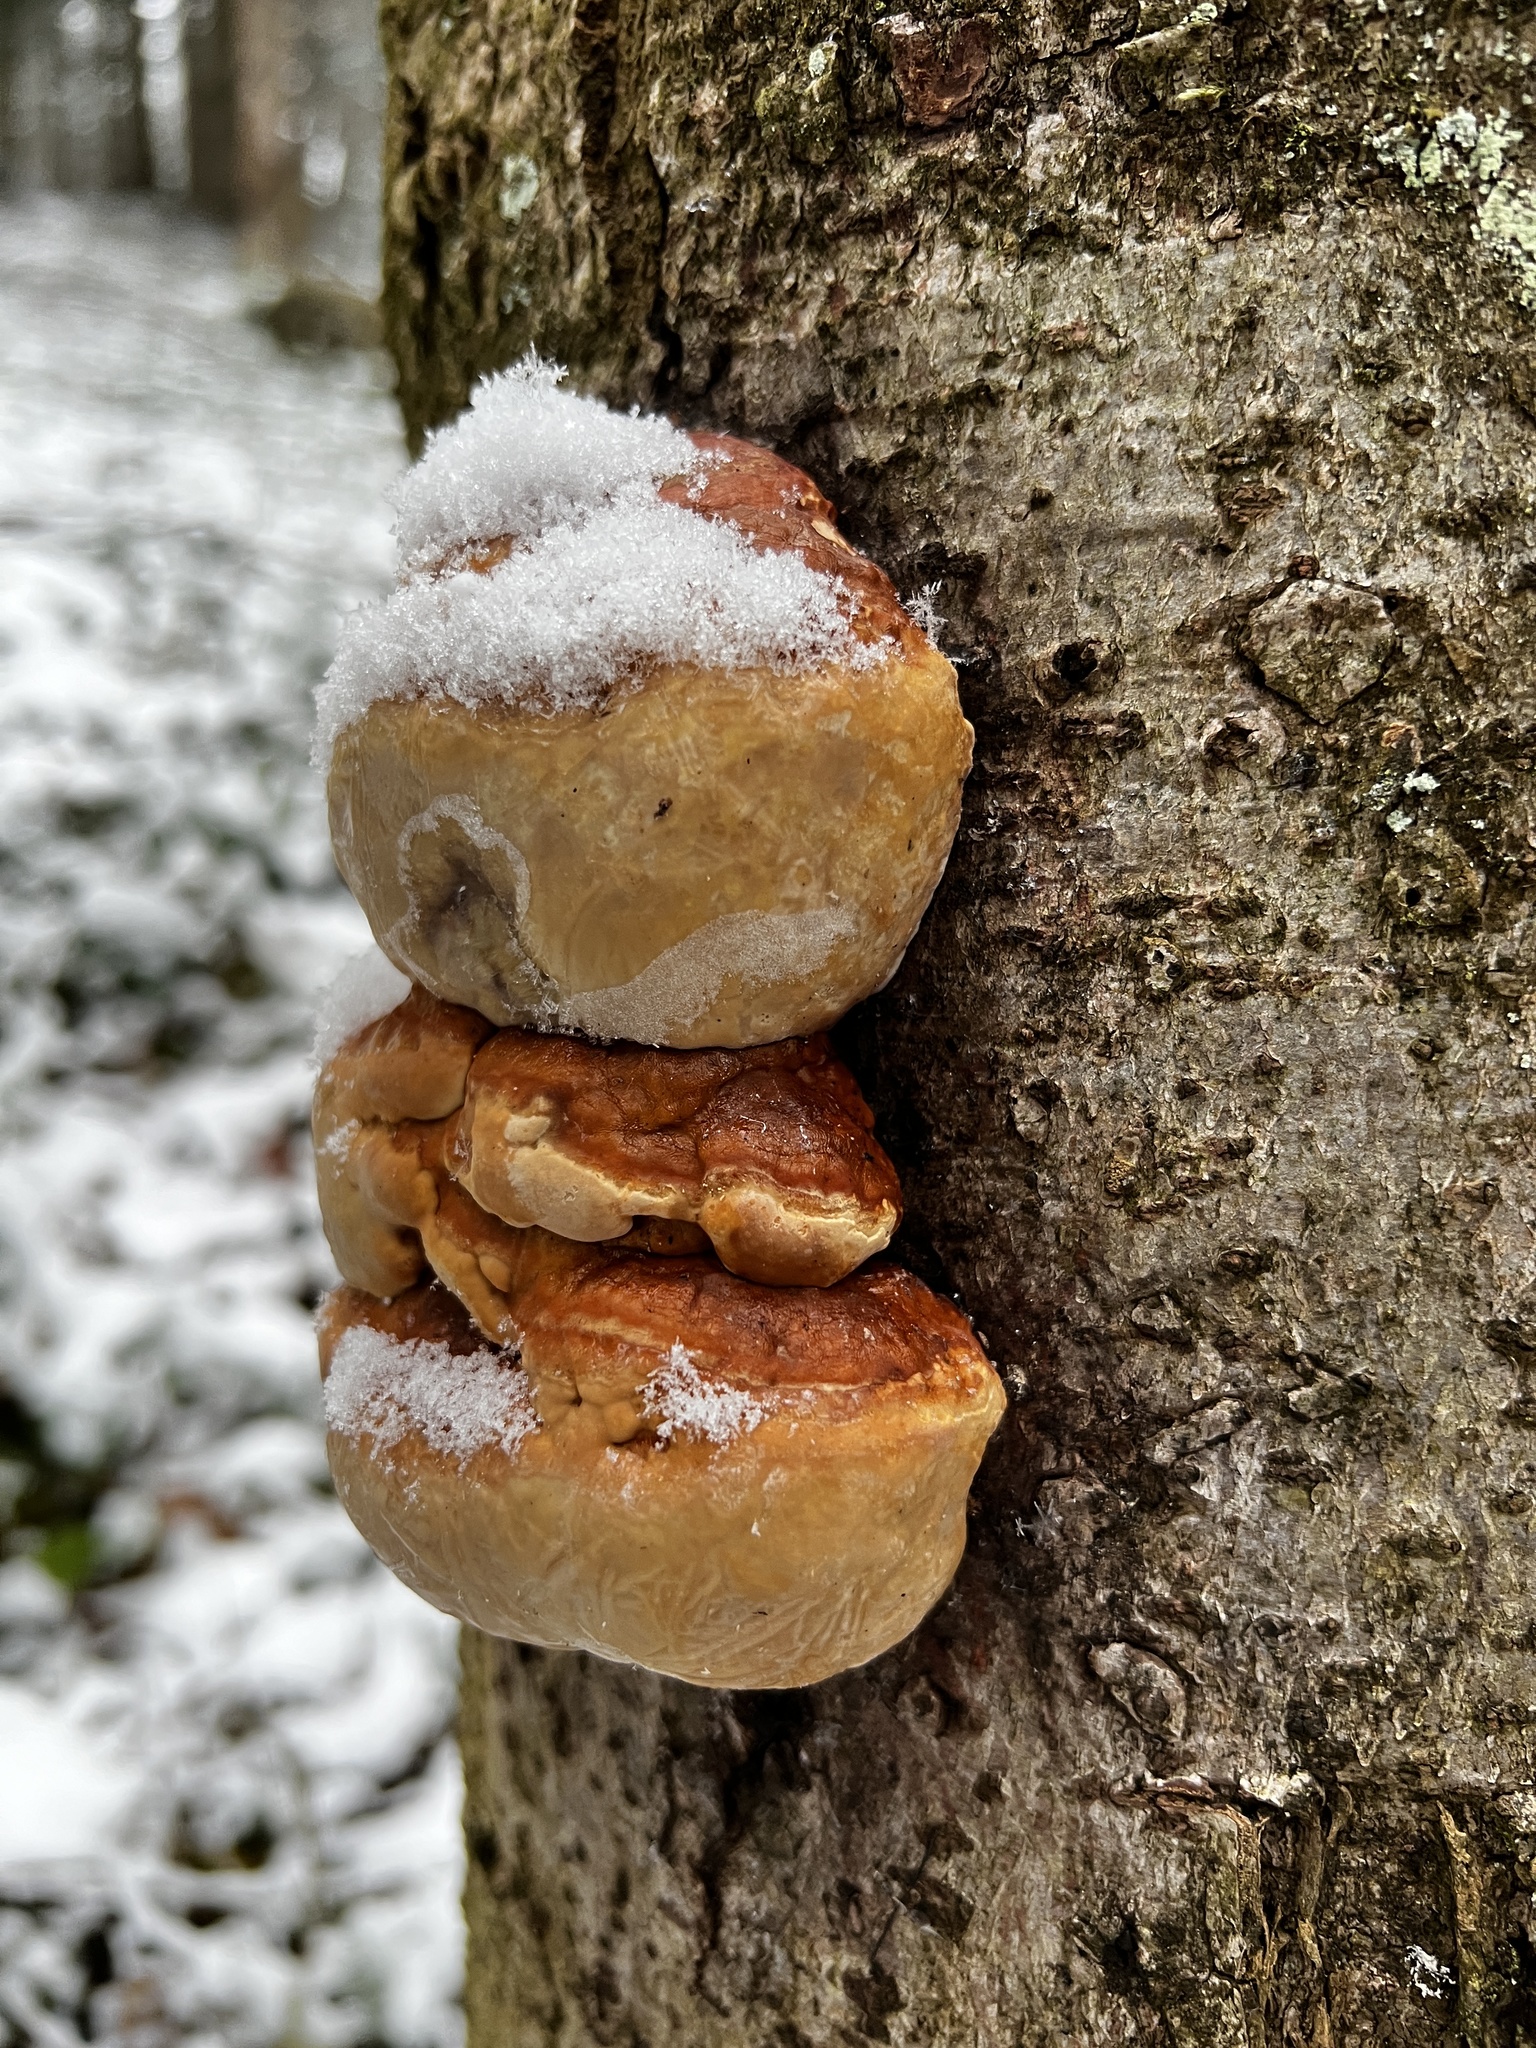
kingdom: Fungi
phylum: Basidiomycota
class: Agaricomycetes
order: Polyporales
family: Fomitopsidaceae
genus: Fomitopsis
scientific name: Fomitopsis pinicola
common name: Red-belted bracket
